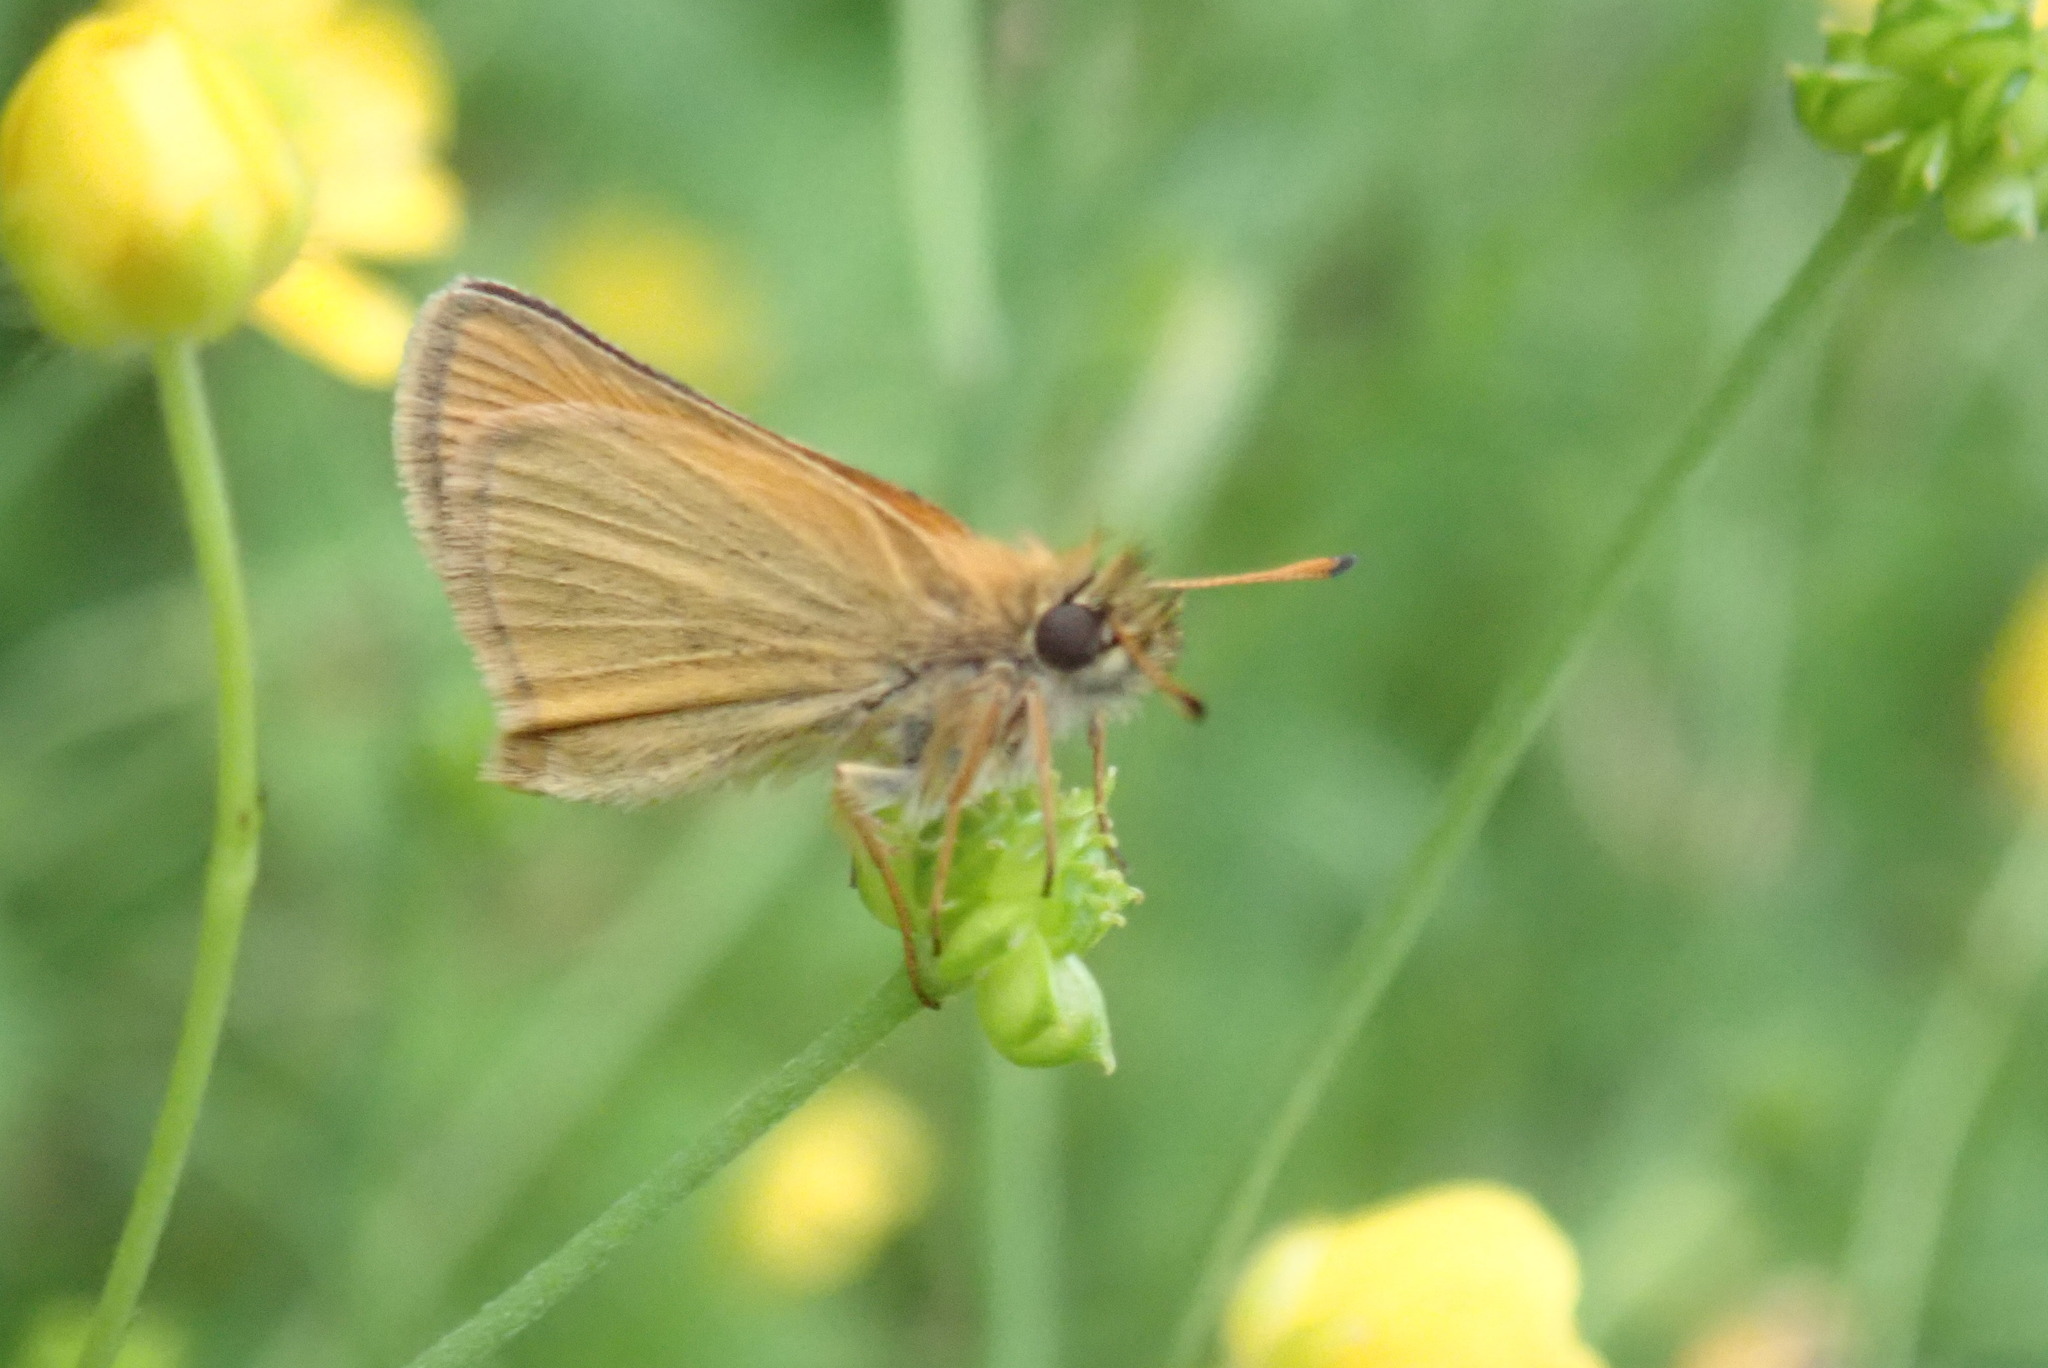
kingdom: Animalia
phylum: Arthropoda
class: Insecta
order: Lepidoptera
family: Hesperiidae
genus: Thymelicus
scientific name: Thymelicus lineola
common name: Essex skipper
